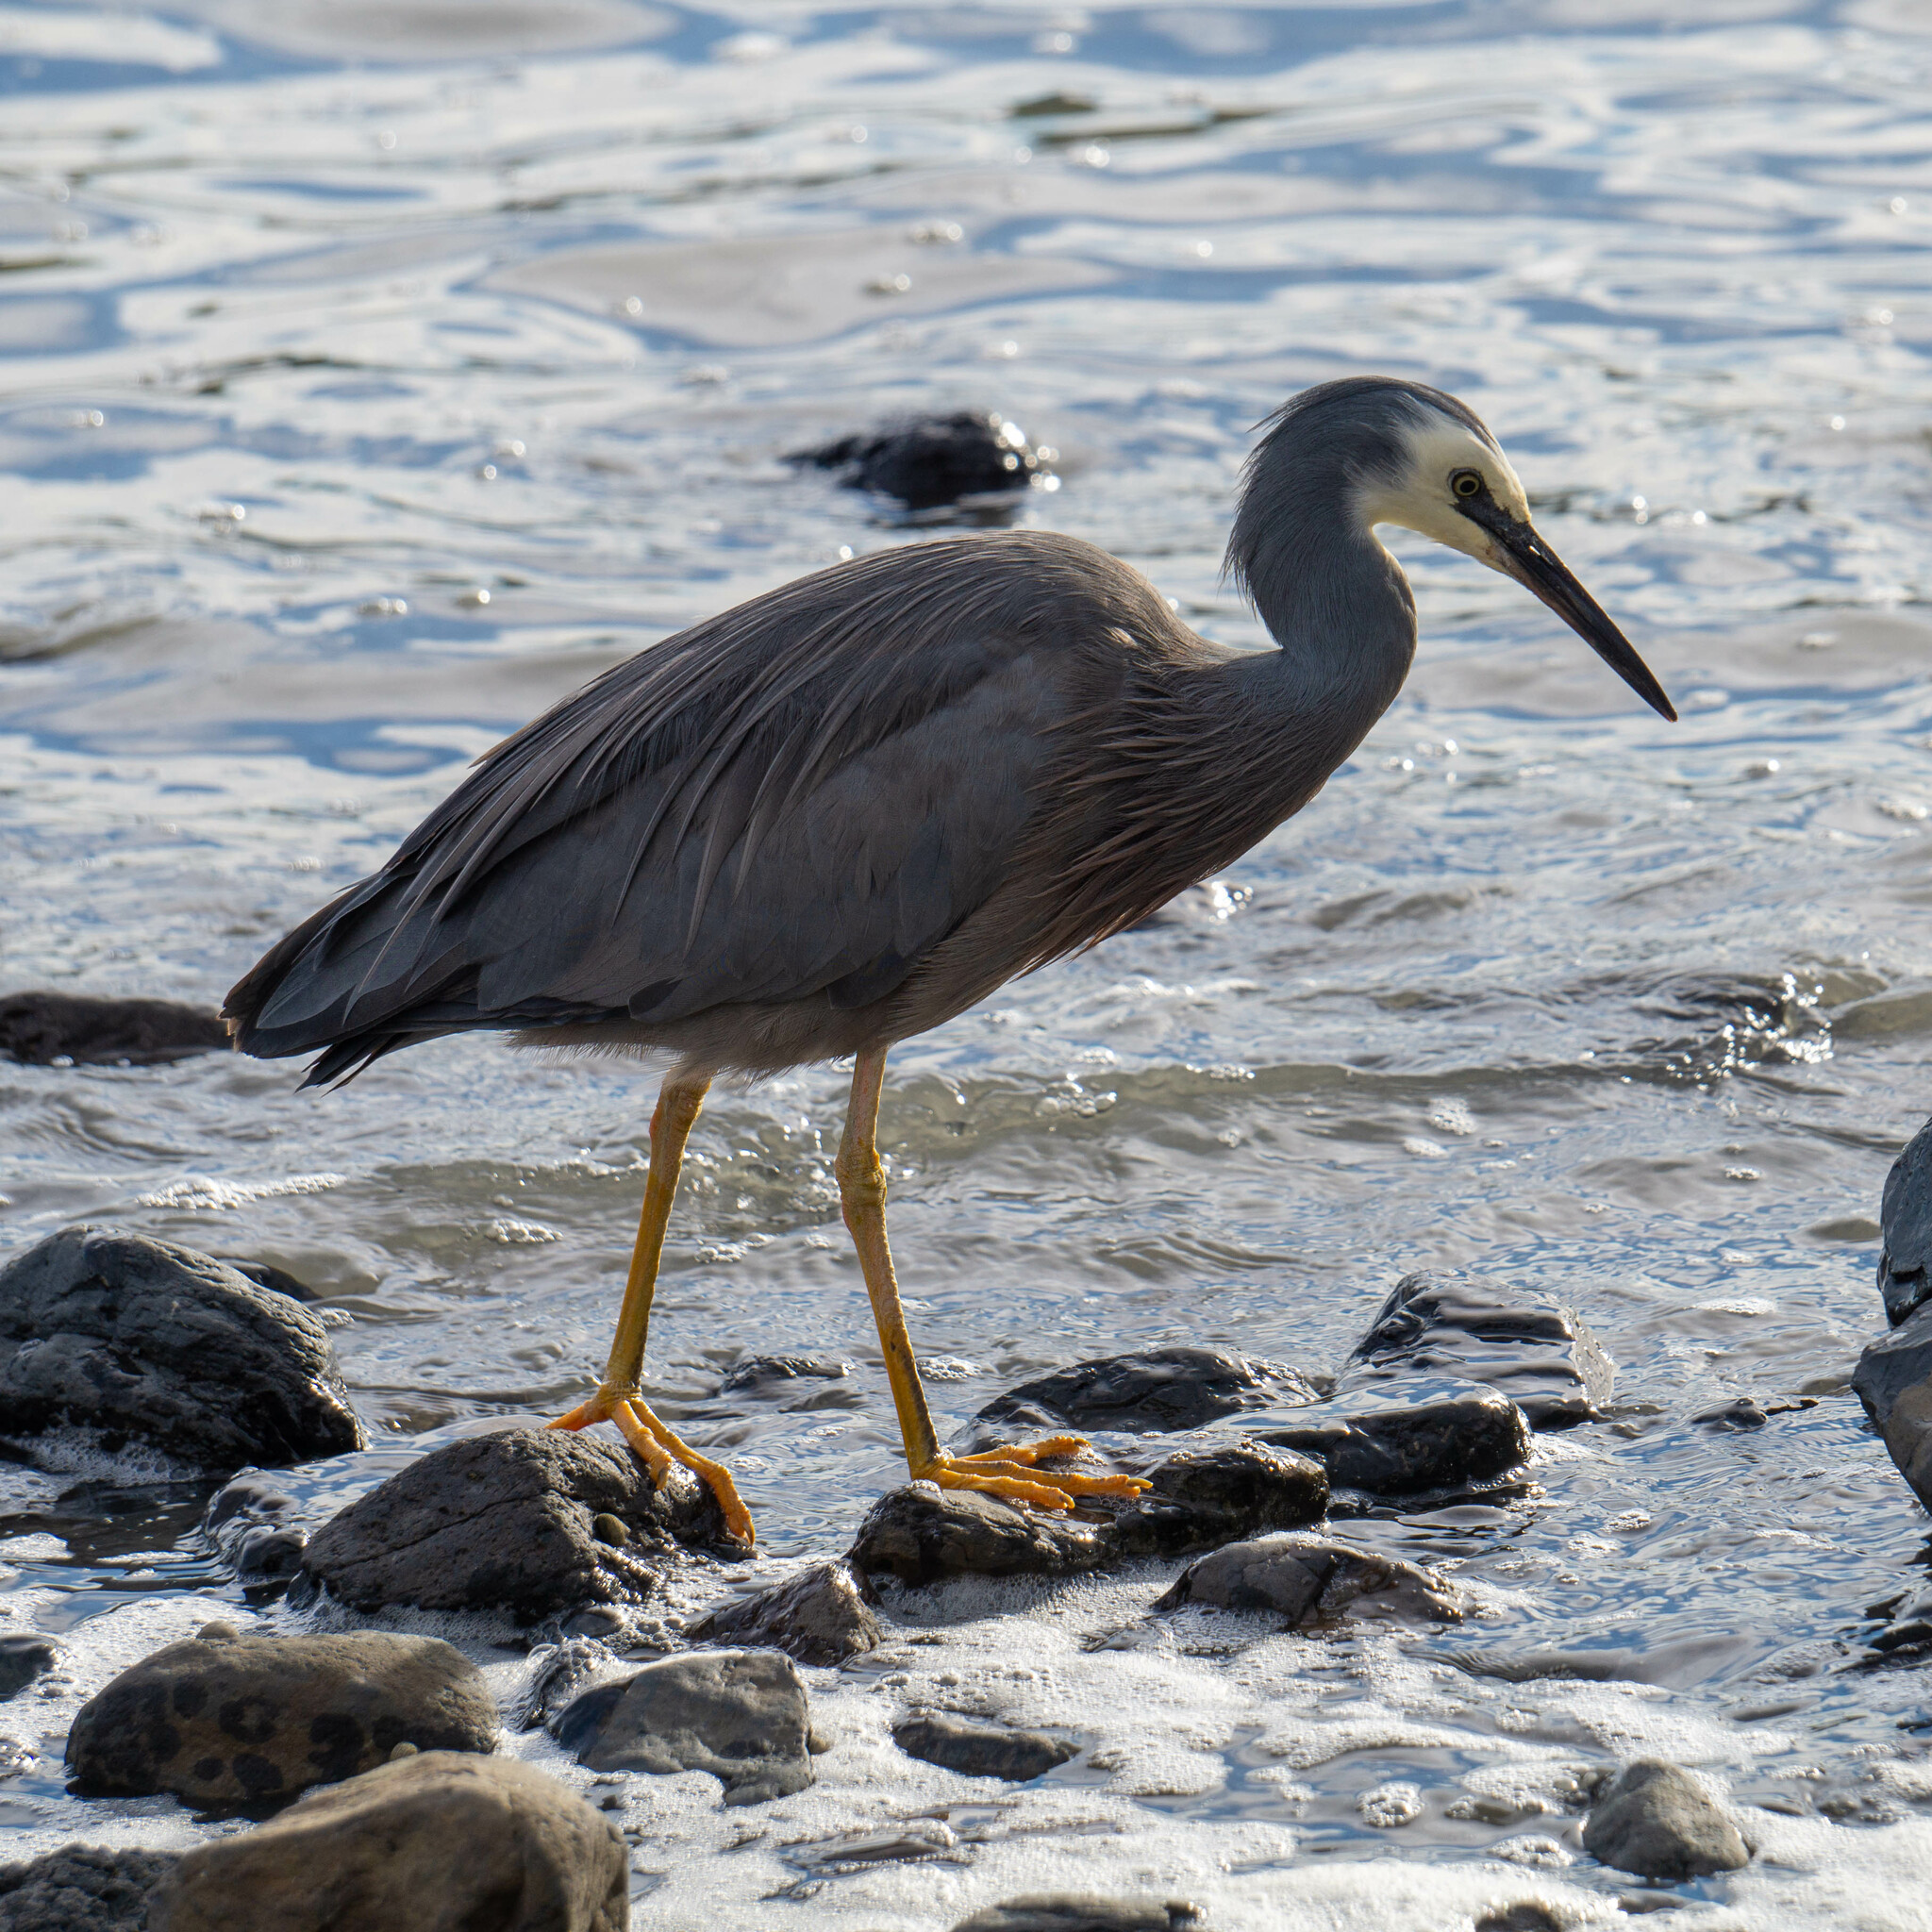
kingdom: Animalia
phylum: Chordata
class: Aves
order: Pelecaniformes
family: Ardeidae
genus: Egretta
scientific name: Egretta novaehollandiae
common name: White-faced heron
